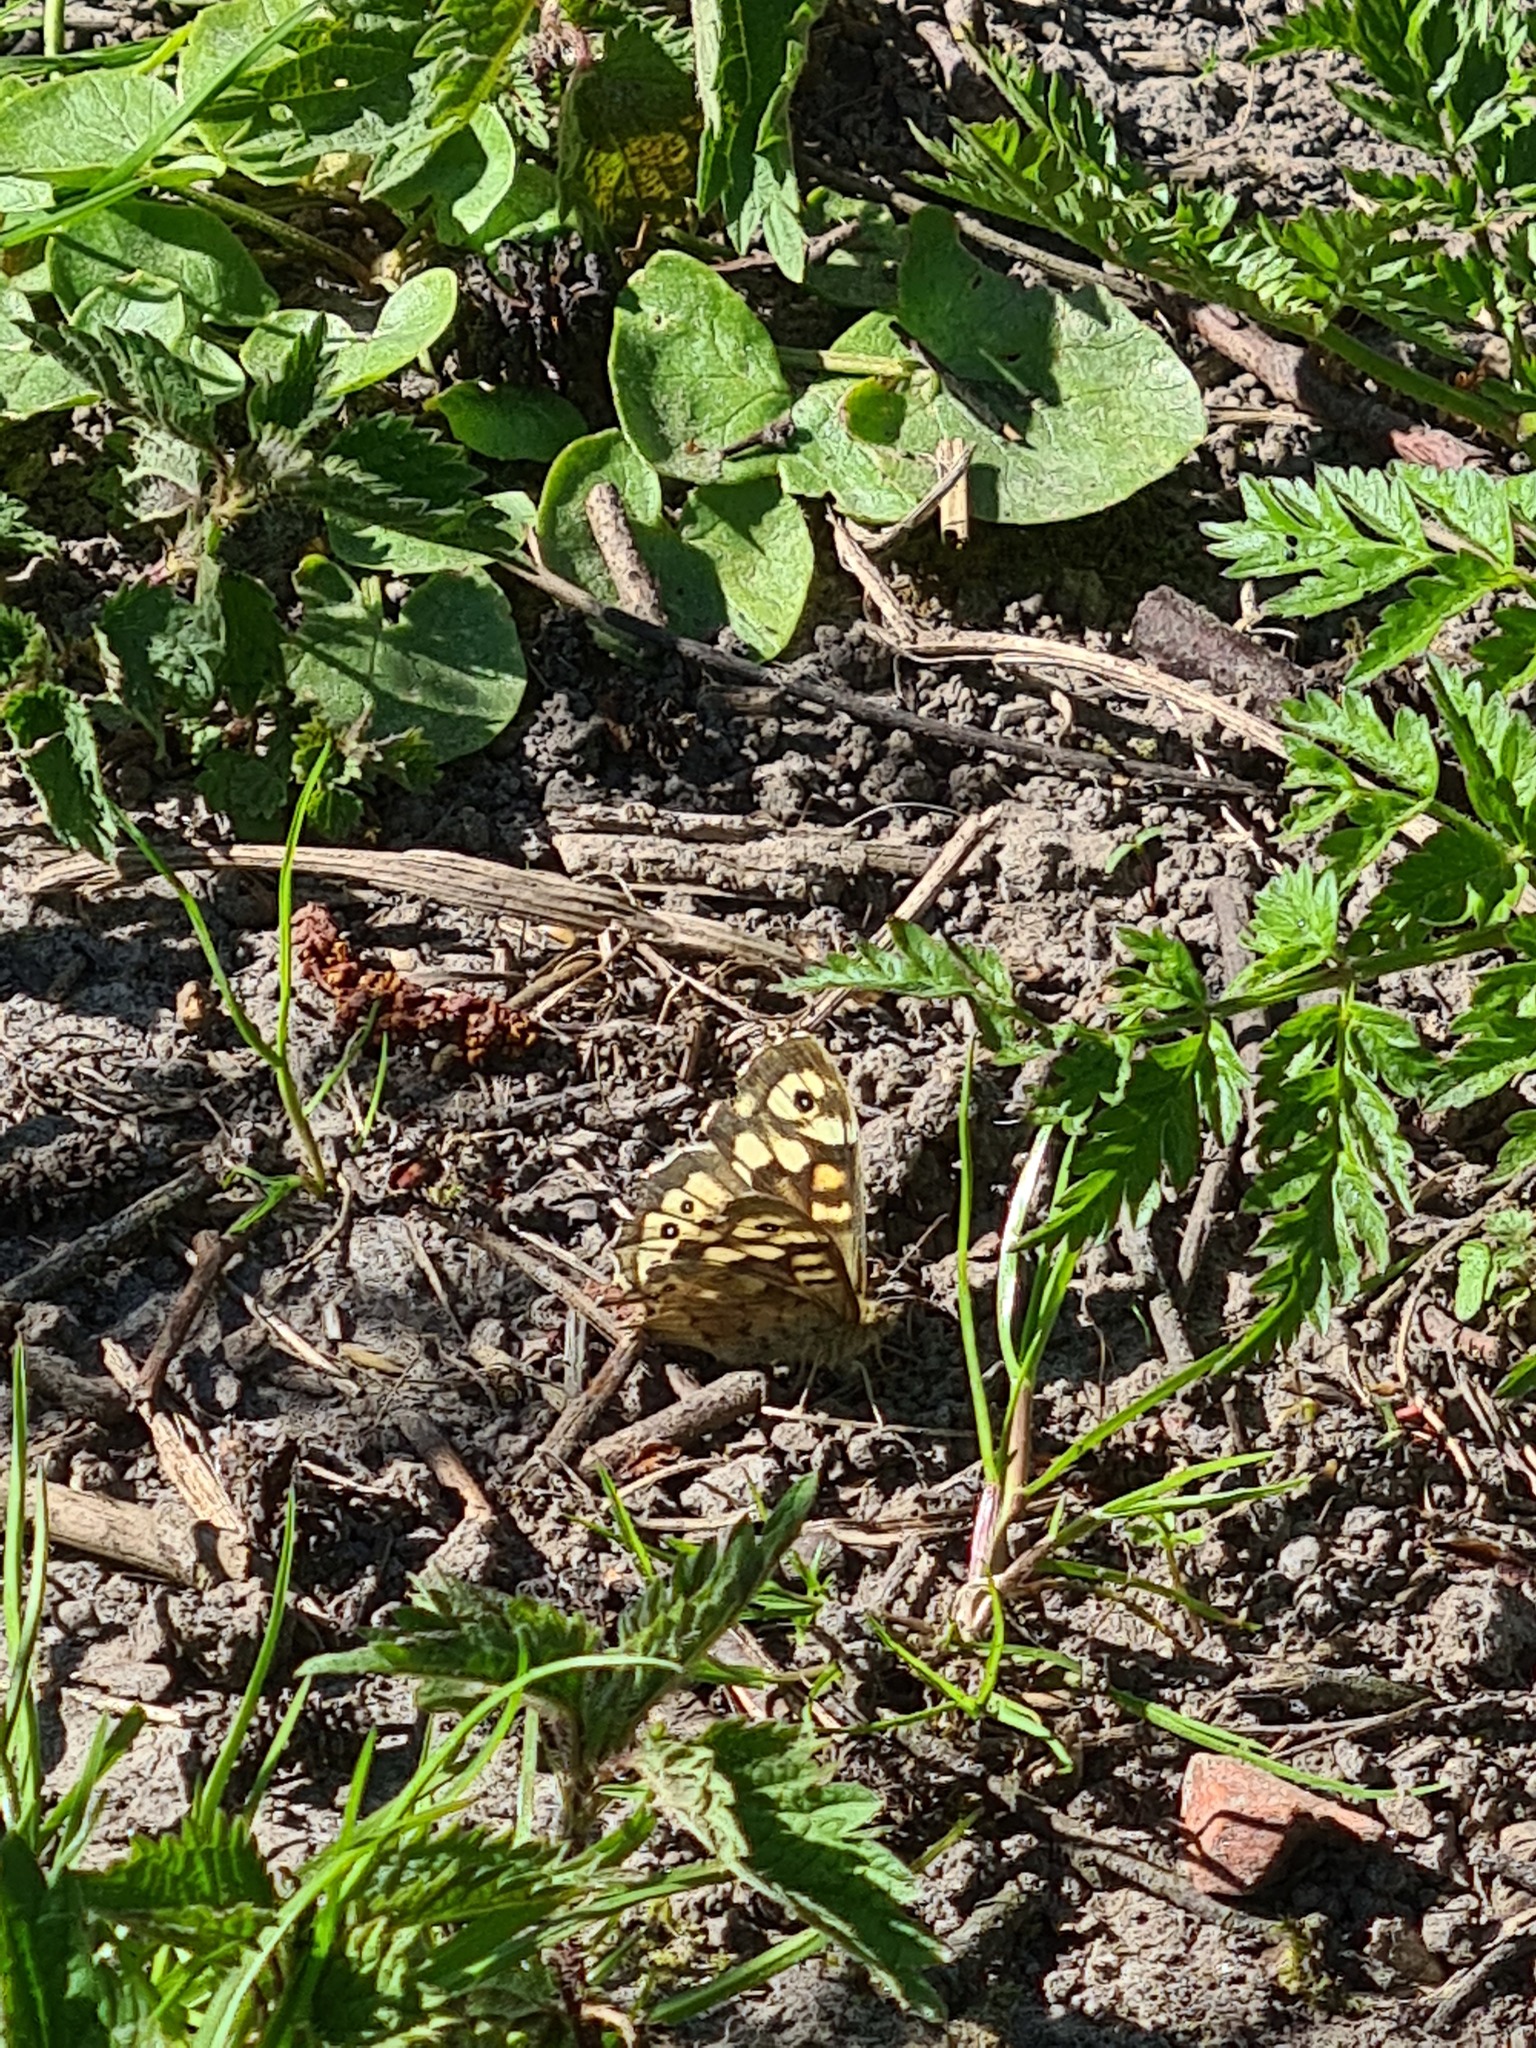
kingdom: Animalia
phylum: Arthropoda
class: Insecta
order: Lepidoptera
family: Nymphalidae
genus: Pararge
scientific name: Pararge aegeria
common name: Speckled wood
